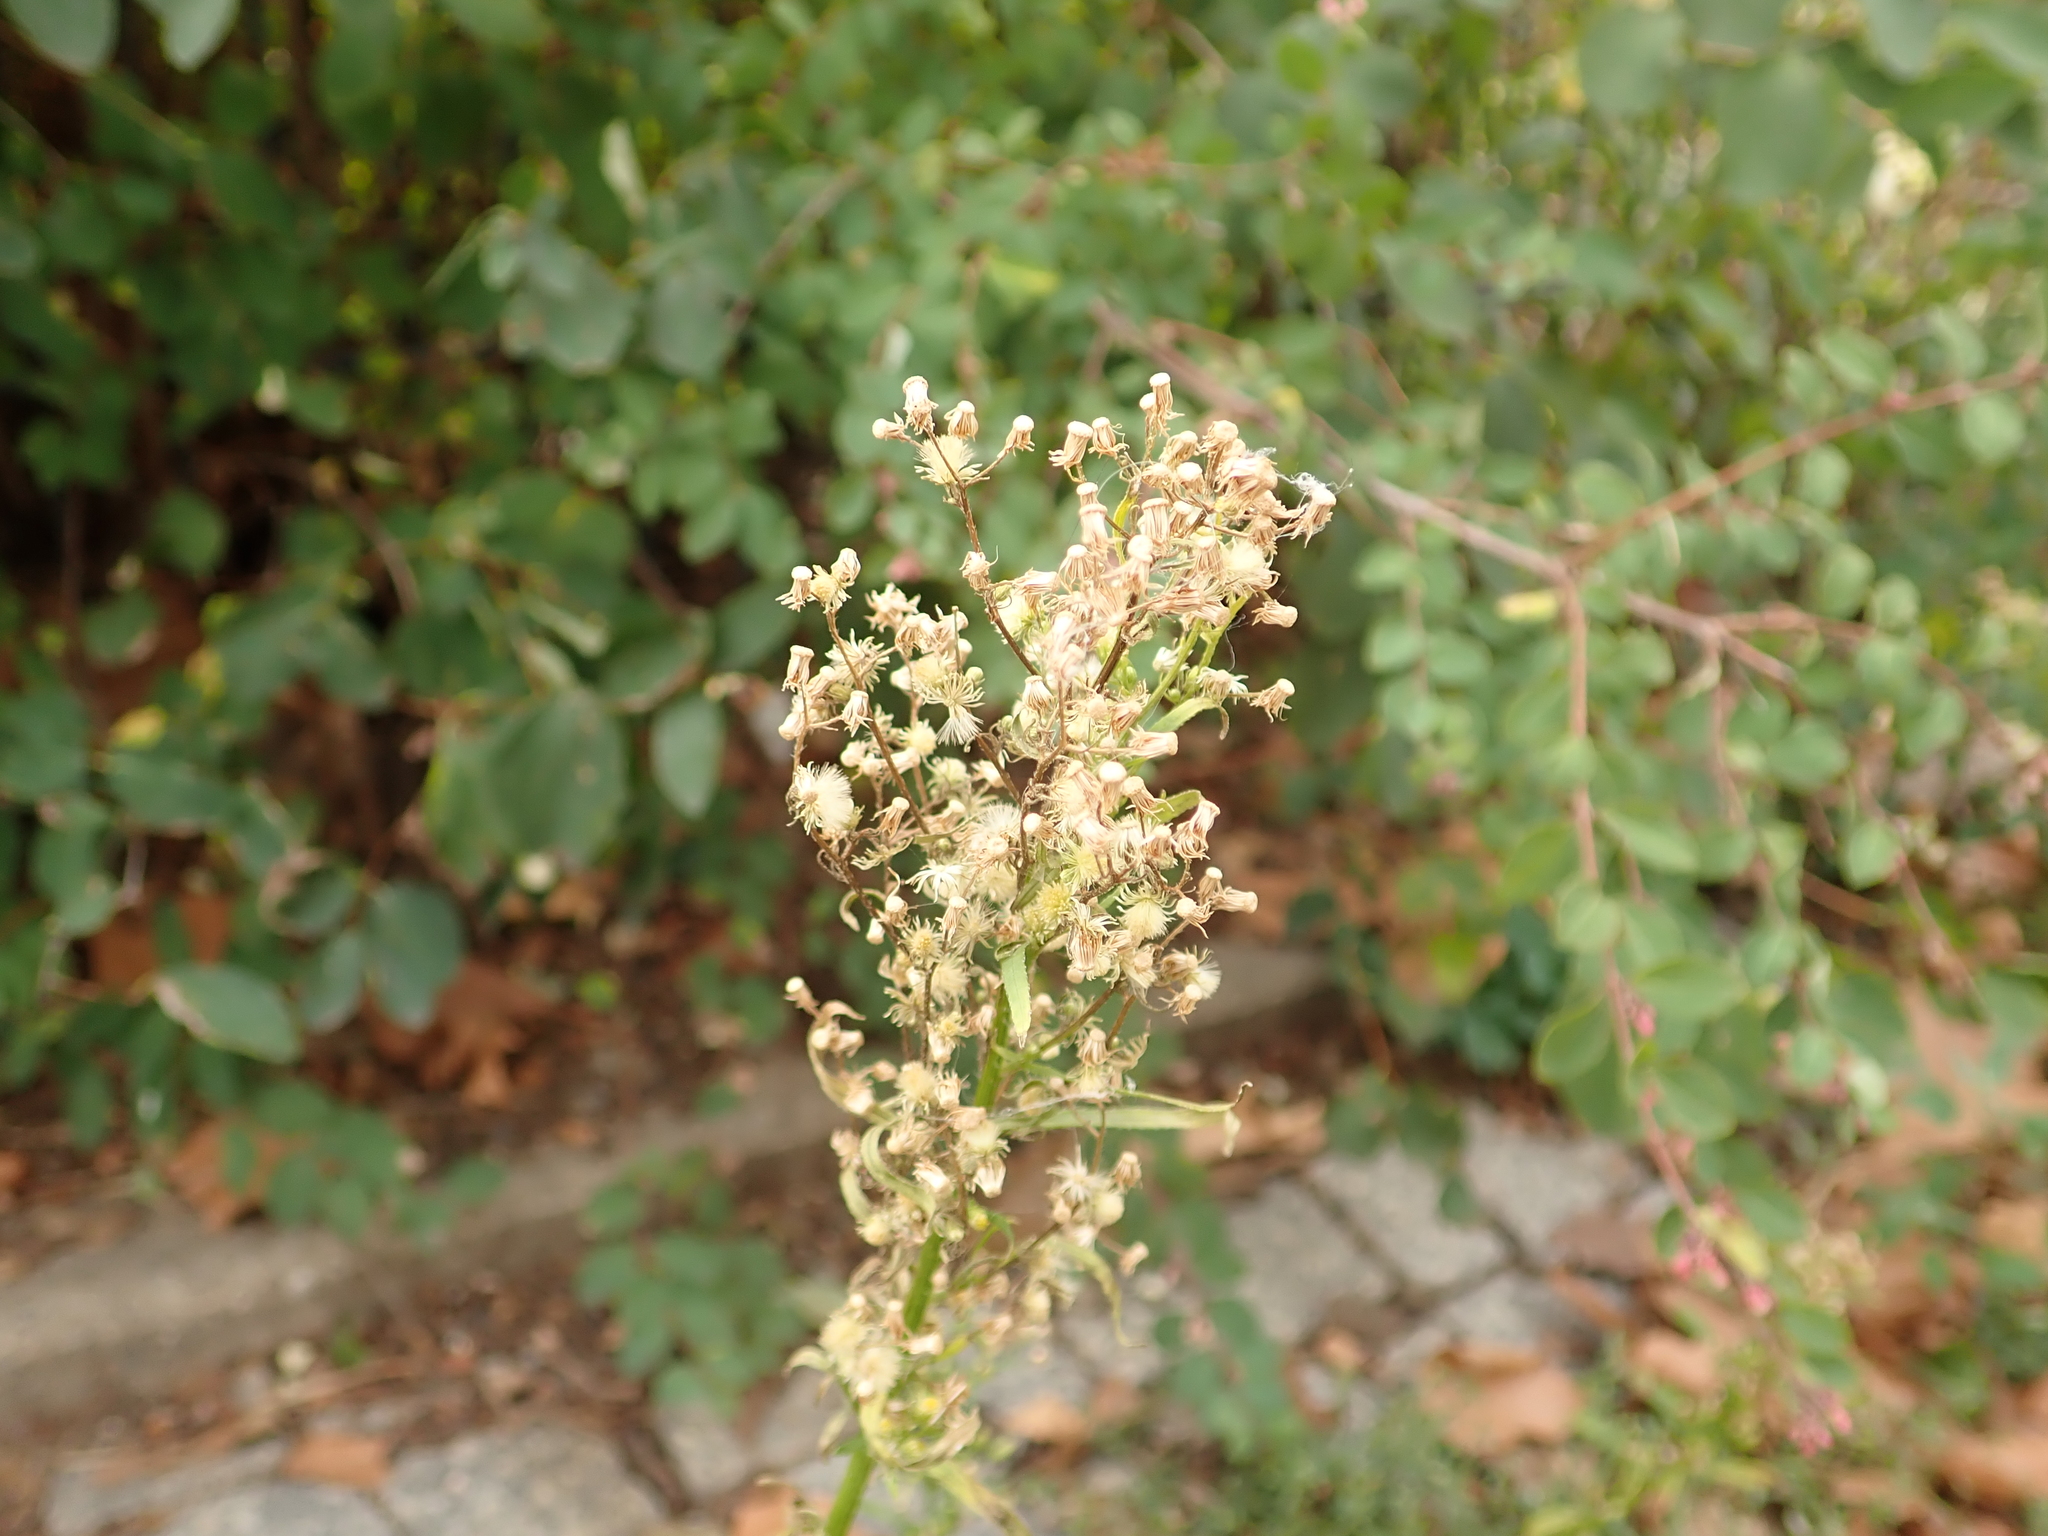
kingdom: Plantae
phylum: Tracheophyta
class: Magnoliopsida
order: Asterales
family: Asteraceae
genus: Erigeron
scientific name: Erigeron canadensis
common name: Canadian fleabane
